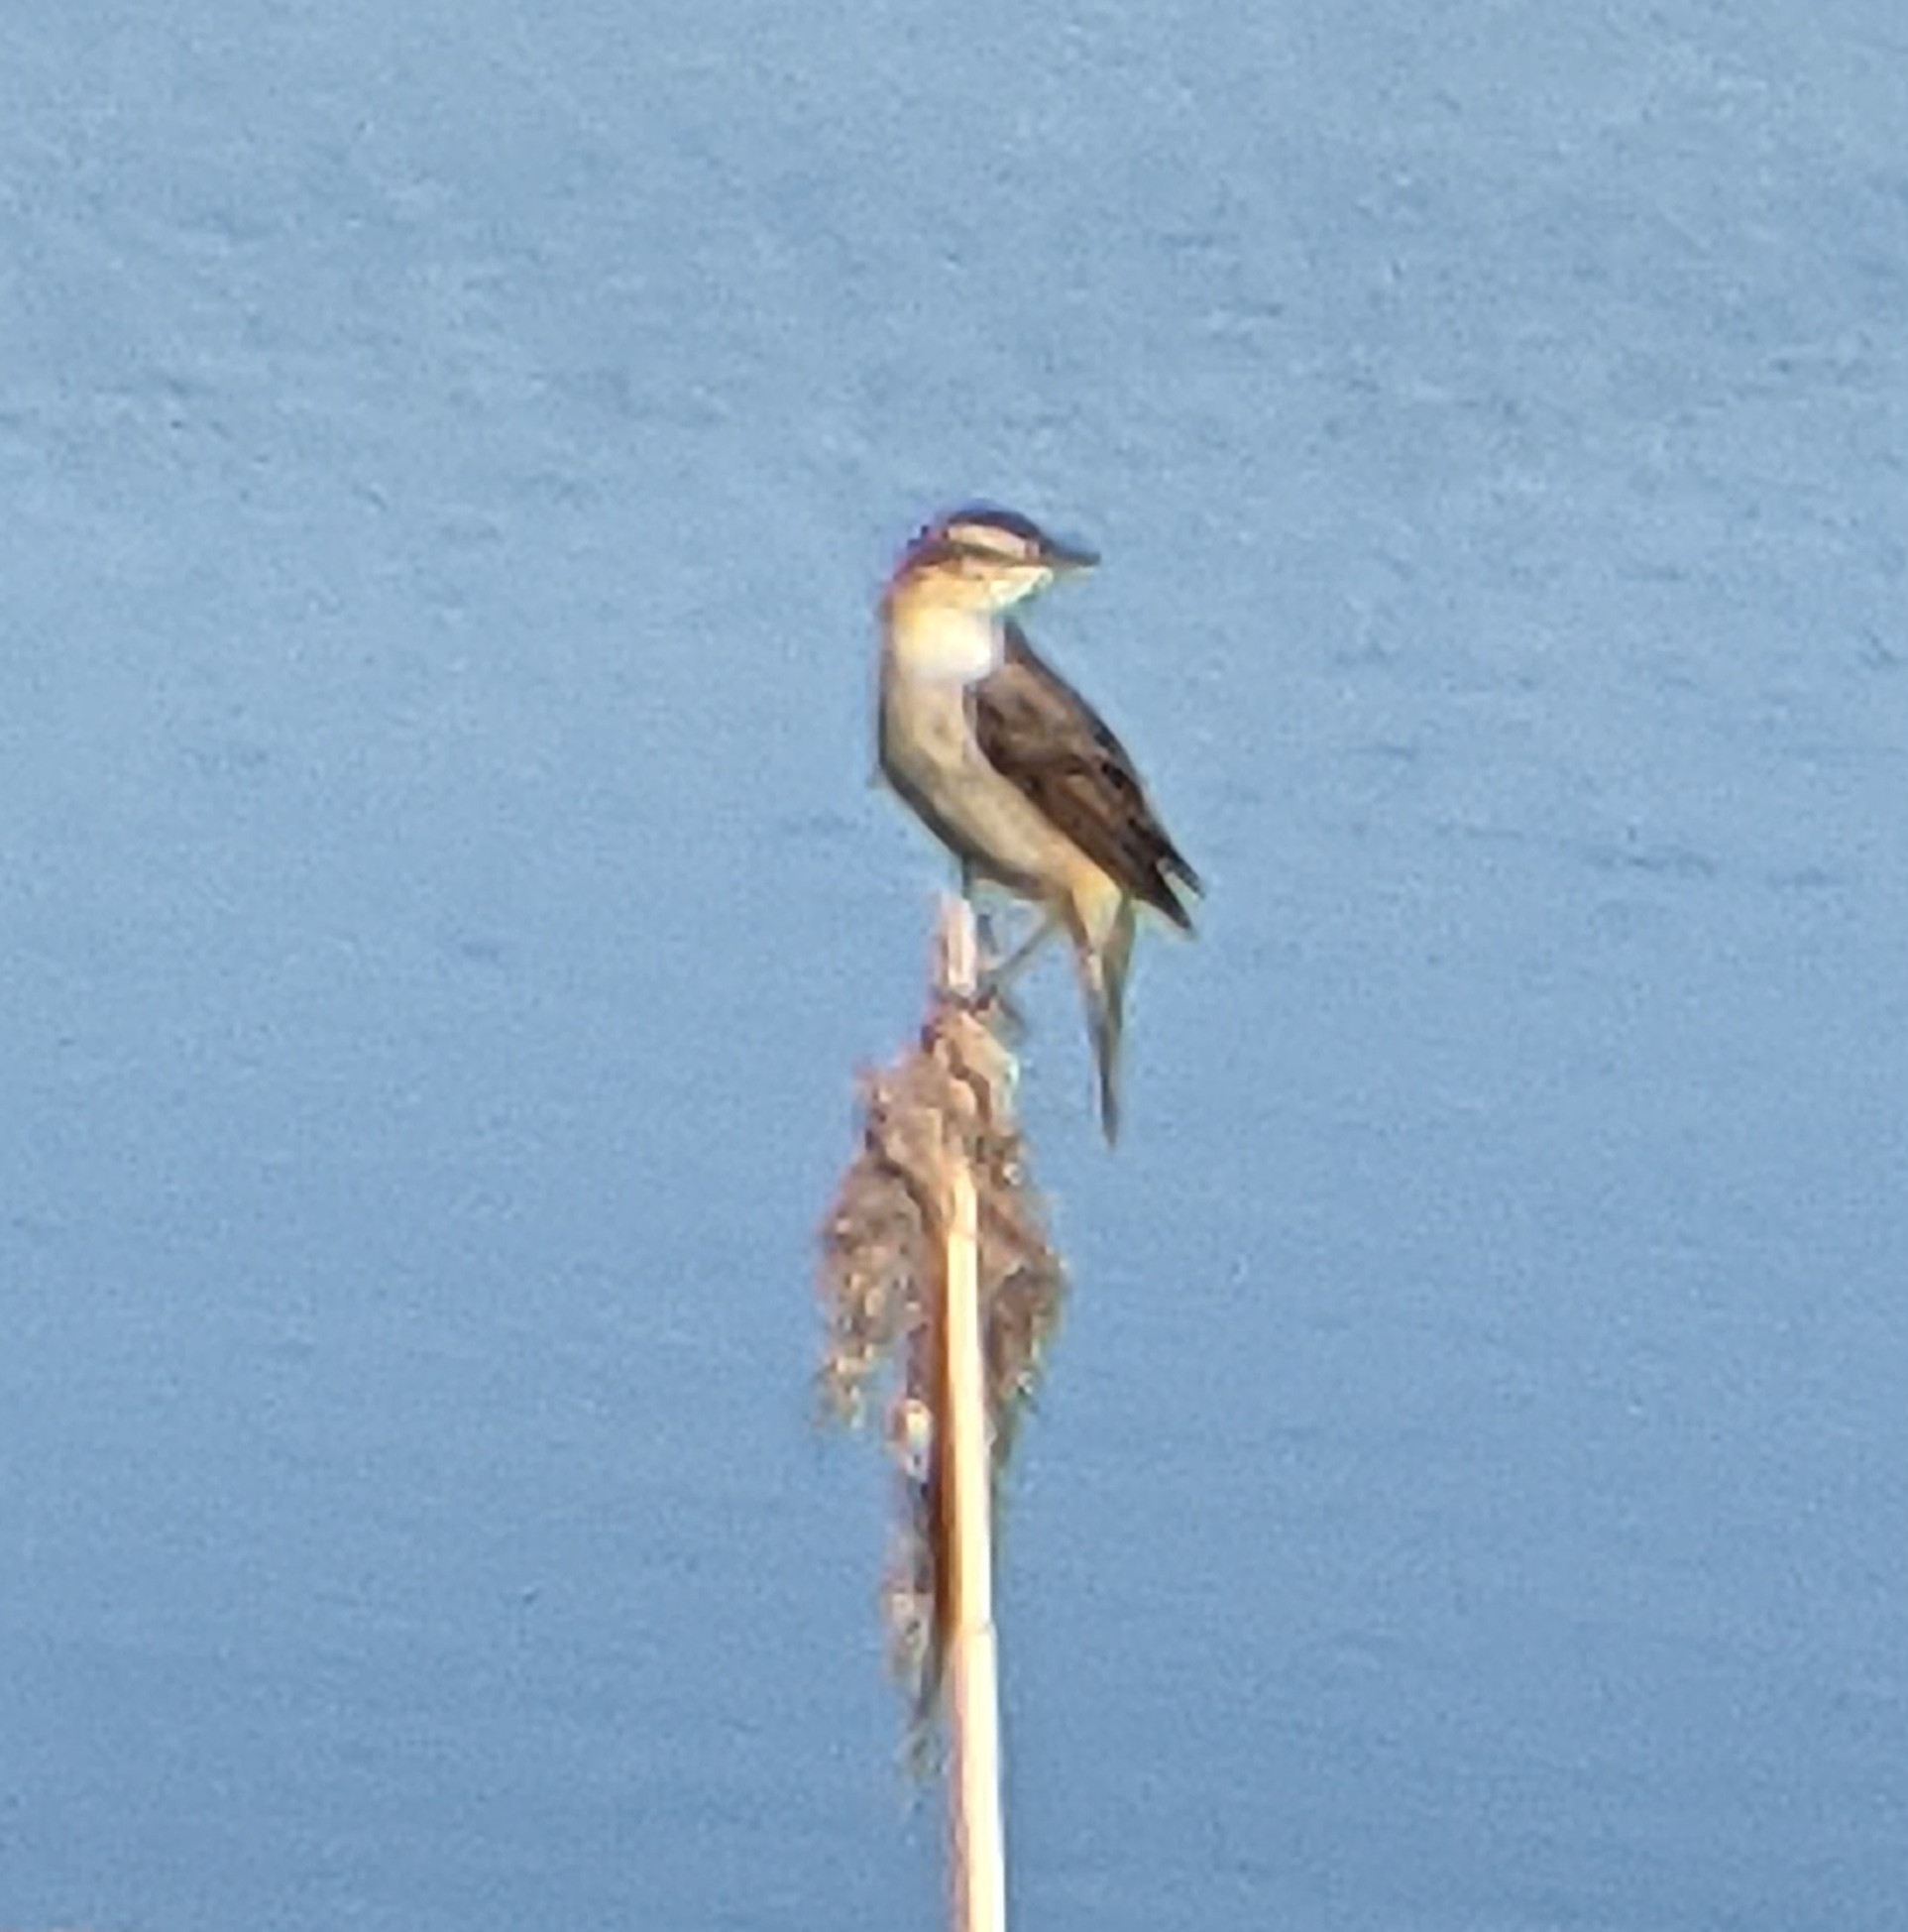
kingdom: Animalia
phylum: Chordata
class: Aves
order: Passeriformes
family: Acrocephalidae
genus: Acrocephalus
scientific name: Acrocephalus schoenobaenus
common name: Sedge warbler
